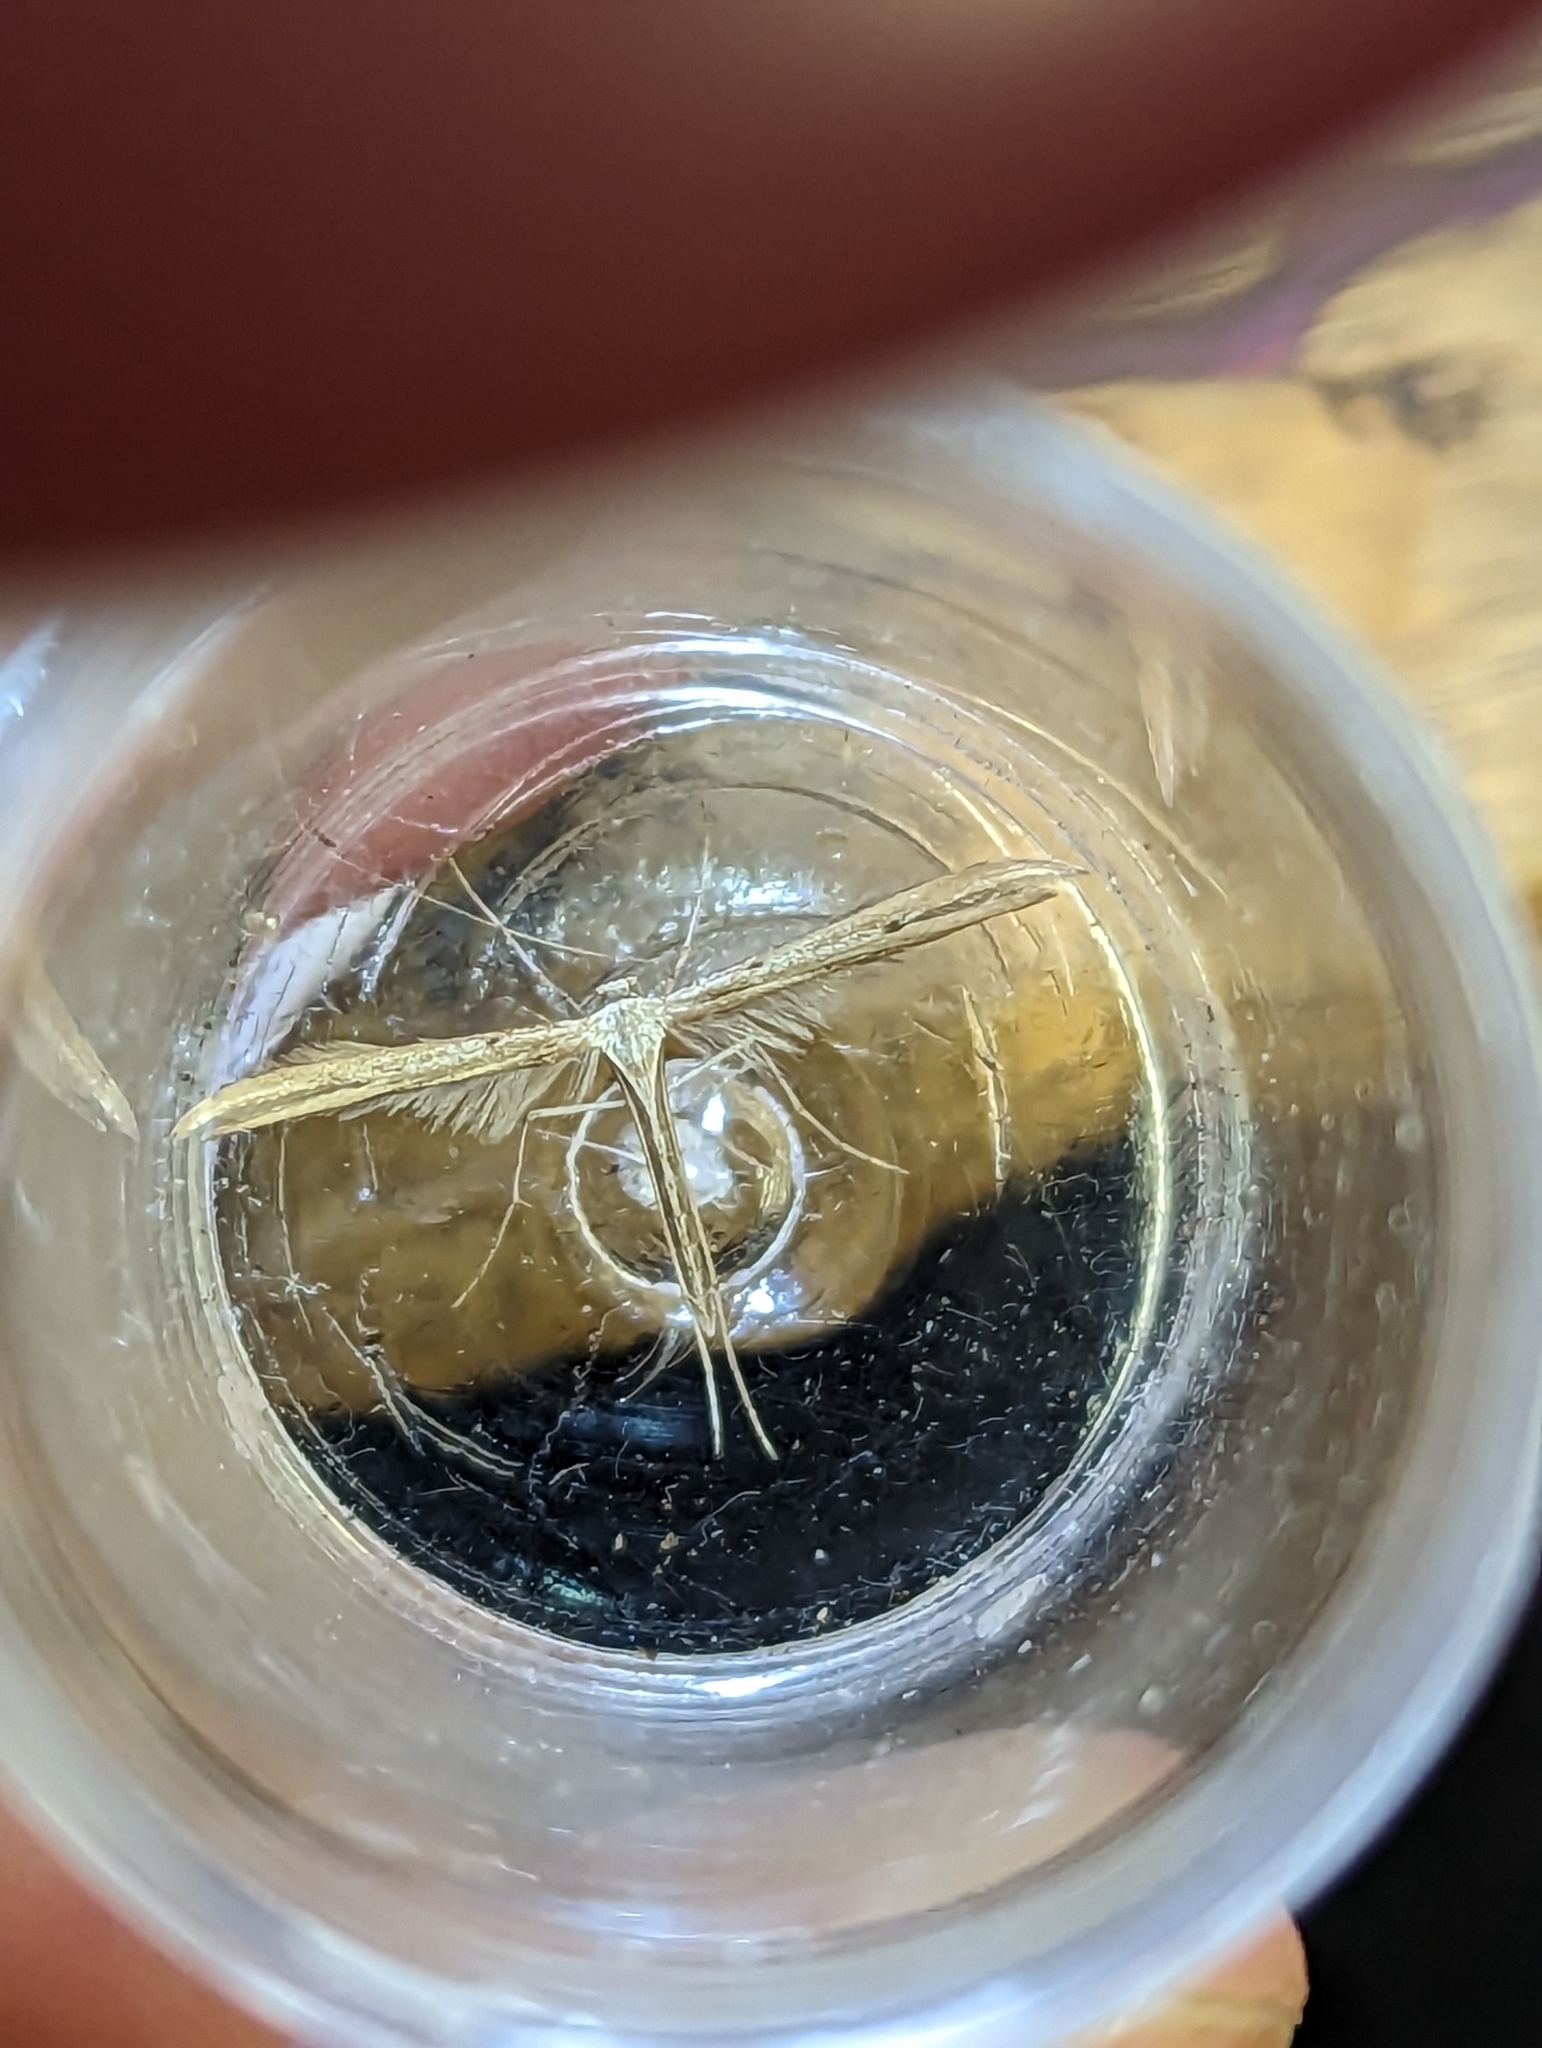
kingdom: Animalia
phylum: Arthropoda
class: Insecta
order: Lepidoptera
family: Pterophoridae
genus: Emmelina
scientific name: Emmelina monodactyla
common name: Common plume
